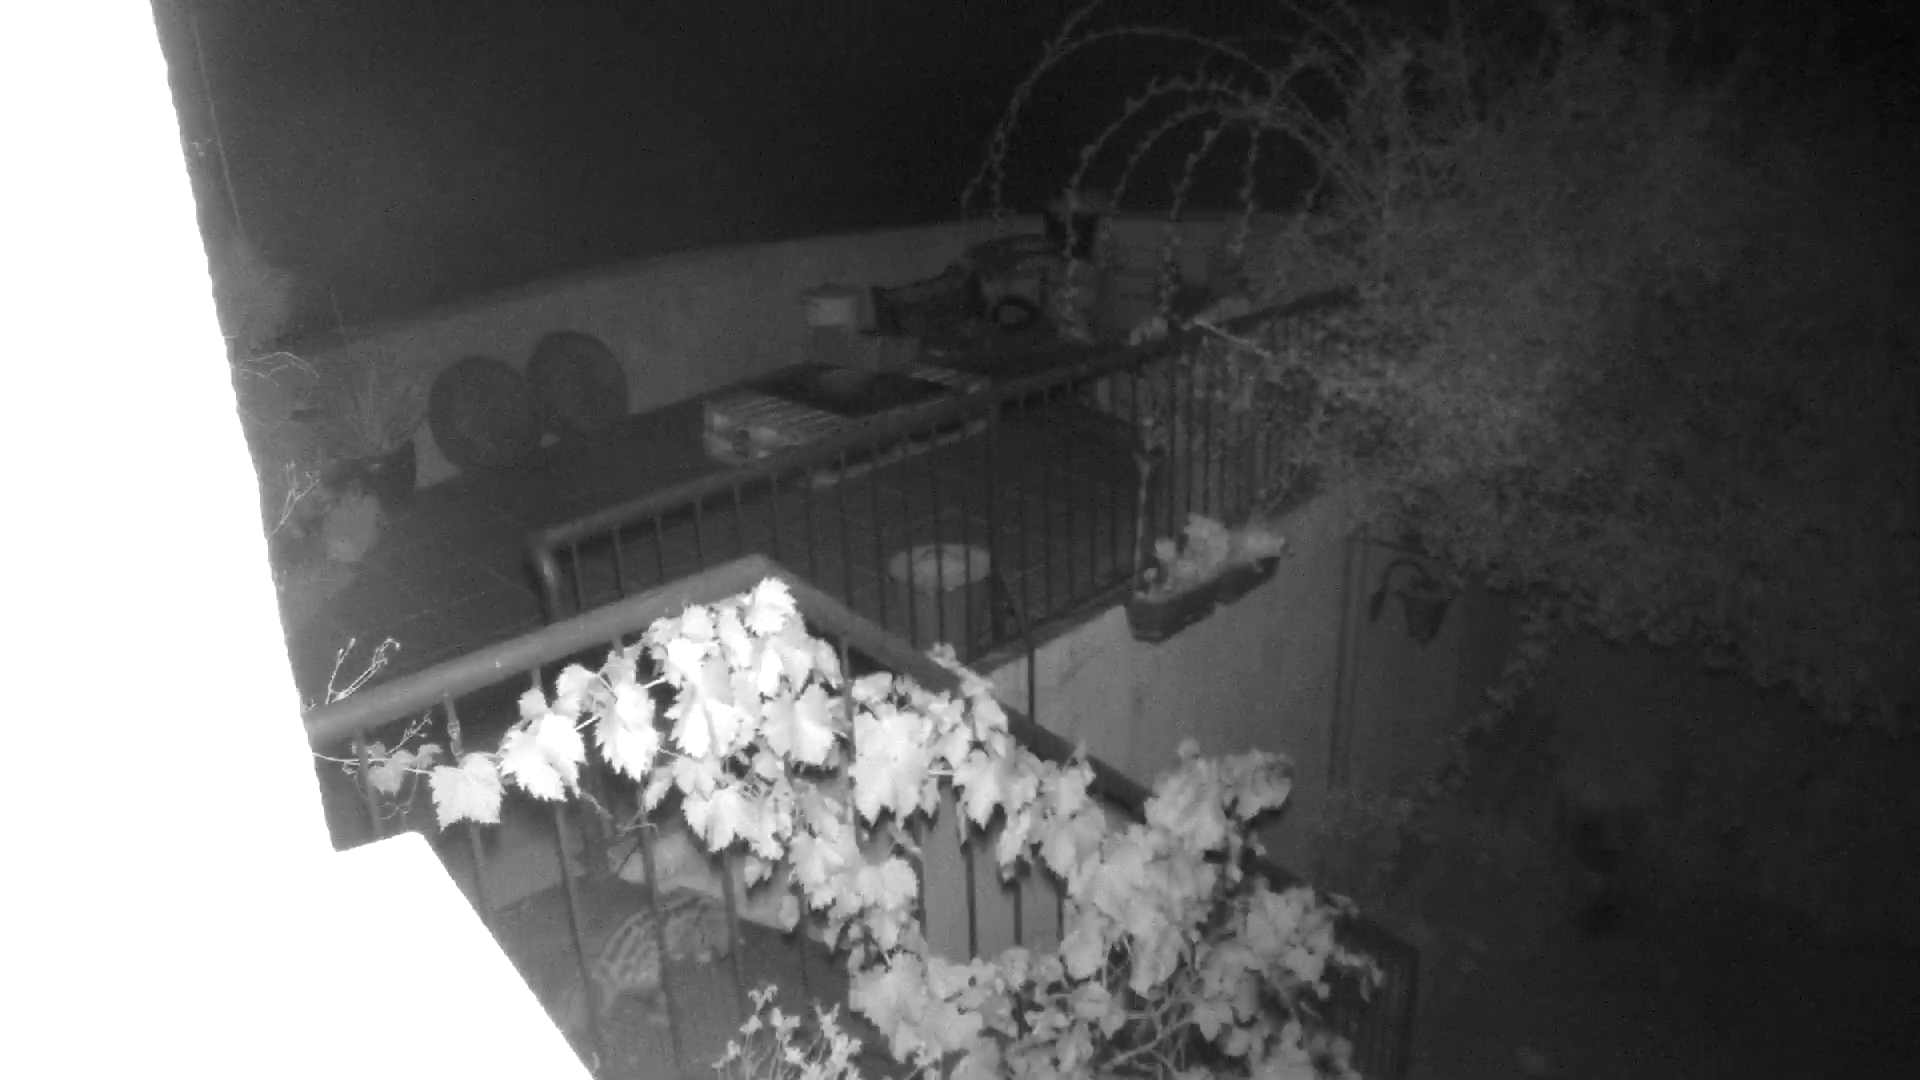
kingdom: Animalia
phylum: Chordata
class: Mammalia
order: Carnivora
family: Viverridae
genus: Genetta
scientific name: Genetta genetta
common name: Common genet
